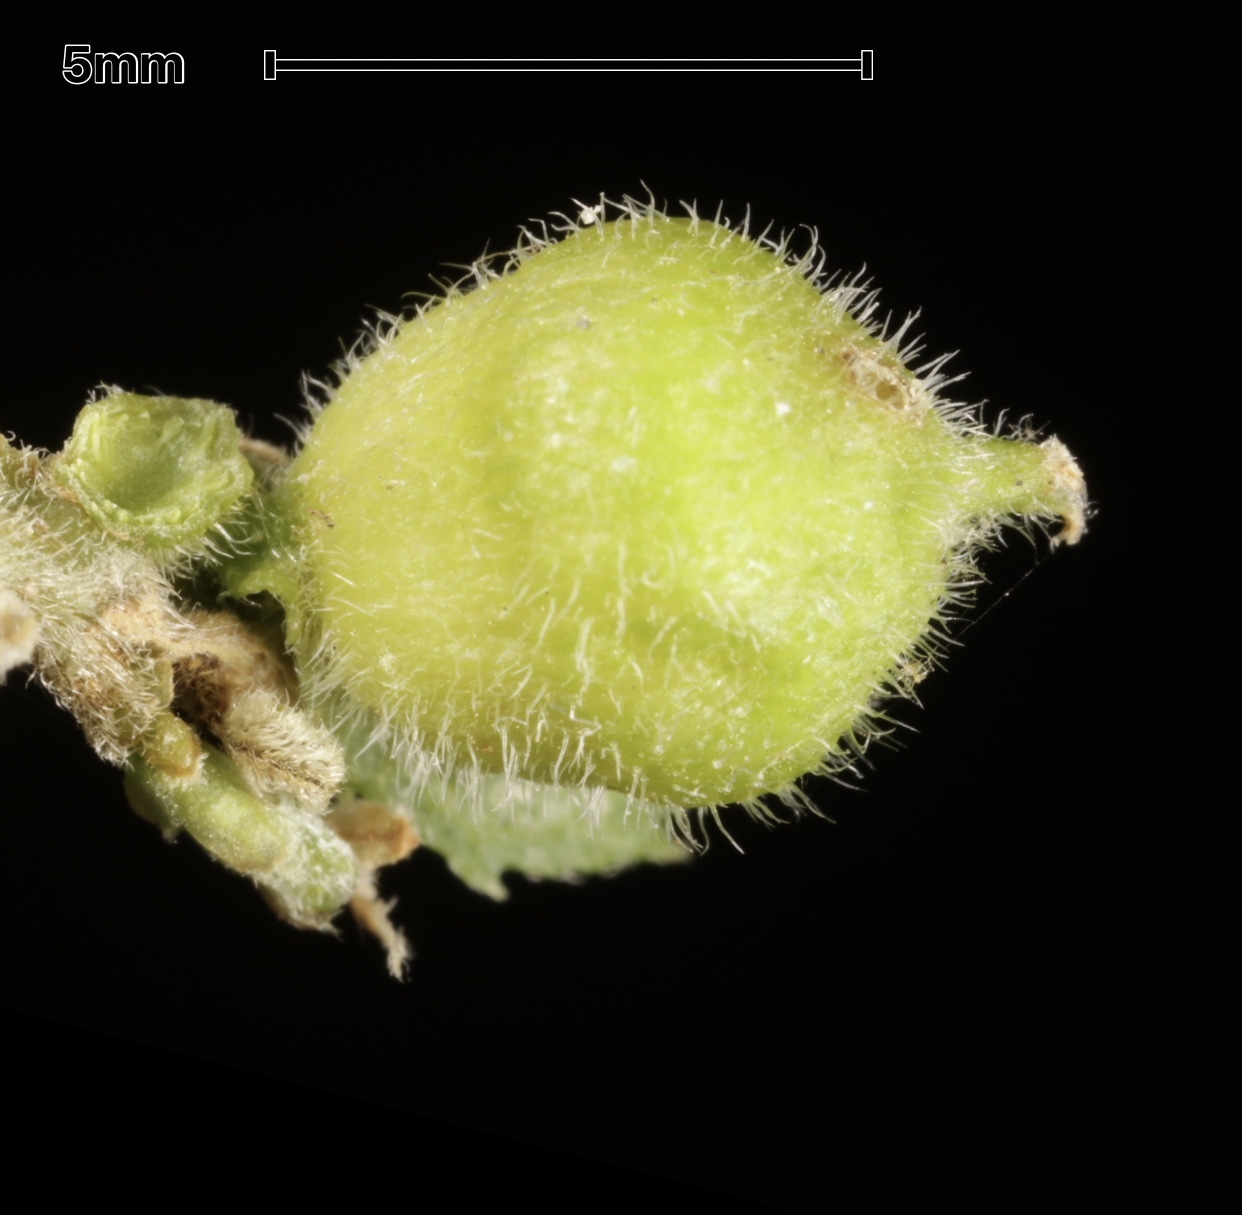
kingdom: Animalia
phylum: Arthropoda
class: Insecta
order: Diptera
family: Cecidomyiidae
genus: Celticecis
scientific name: Celticecis celtiphyllia
